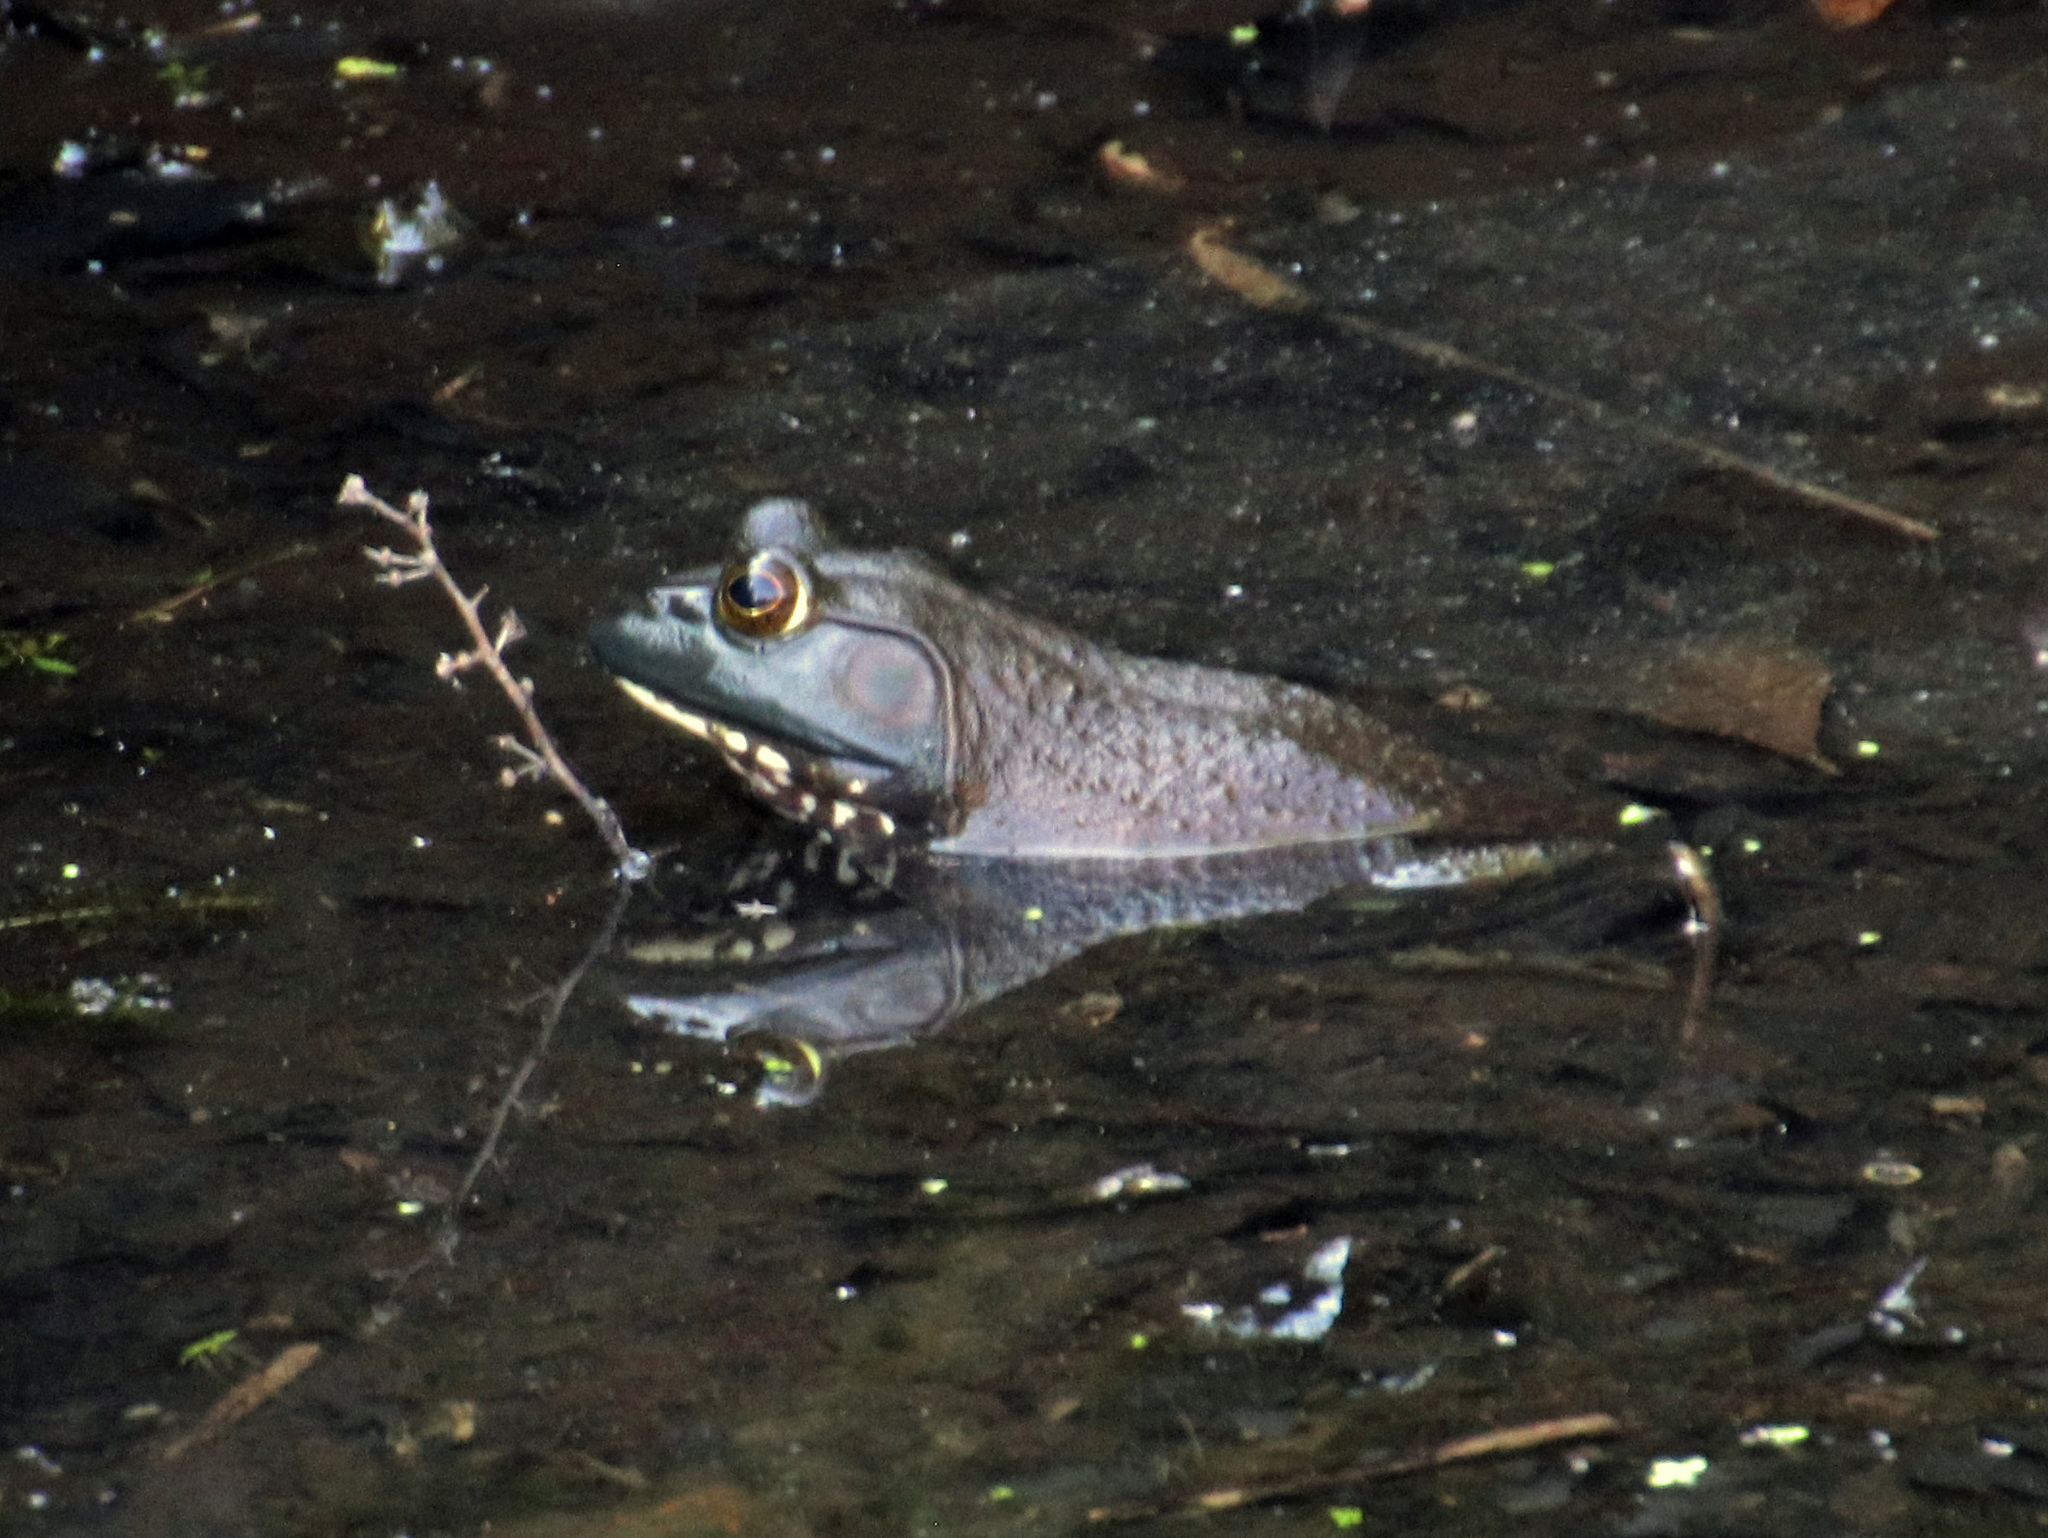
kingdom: Animalia
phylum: Chordata
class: Amphibia
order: Anura
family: Ranidae
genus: Lithobates
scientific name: Lithobates catesbeianus
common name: American bullfrog
